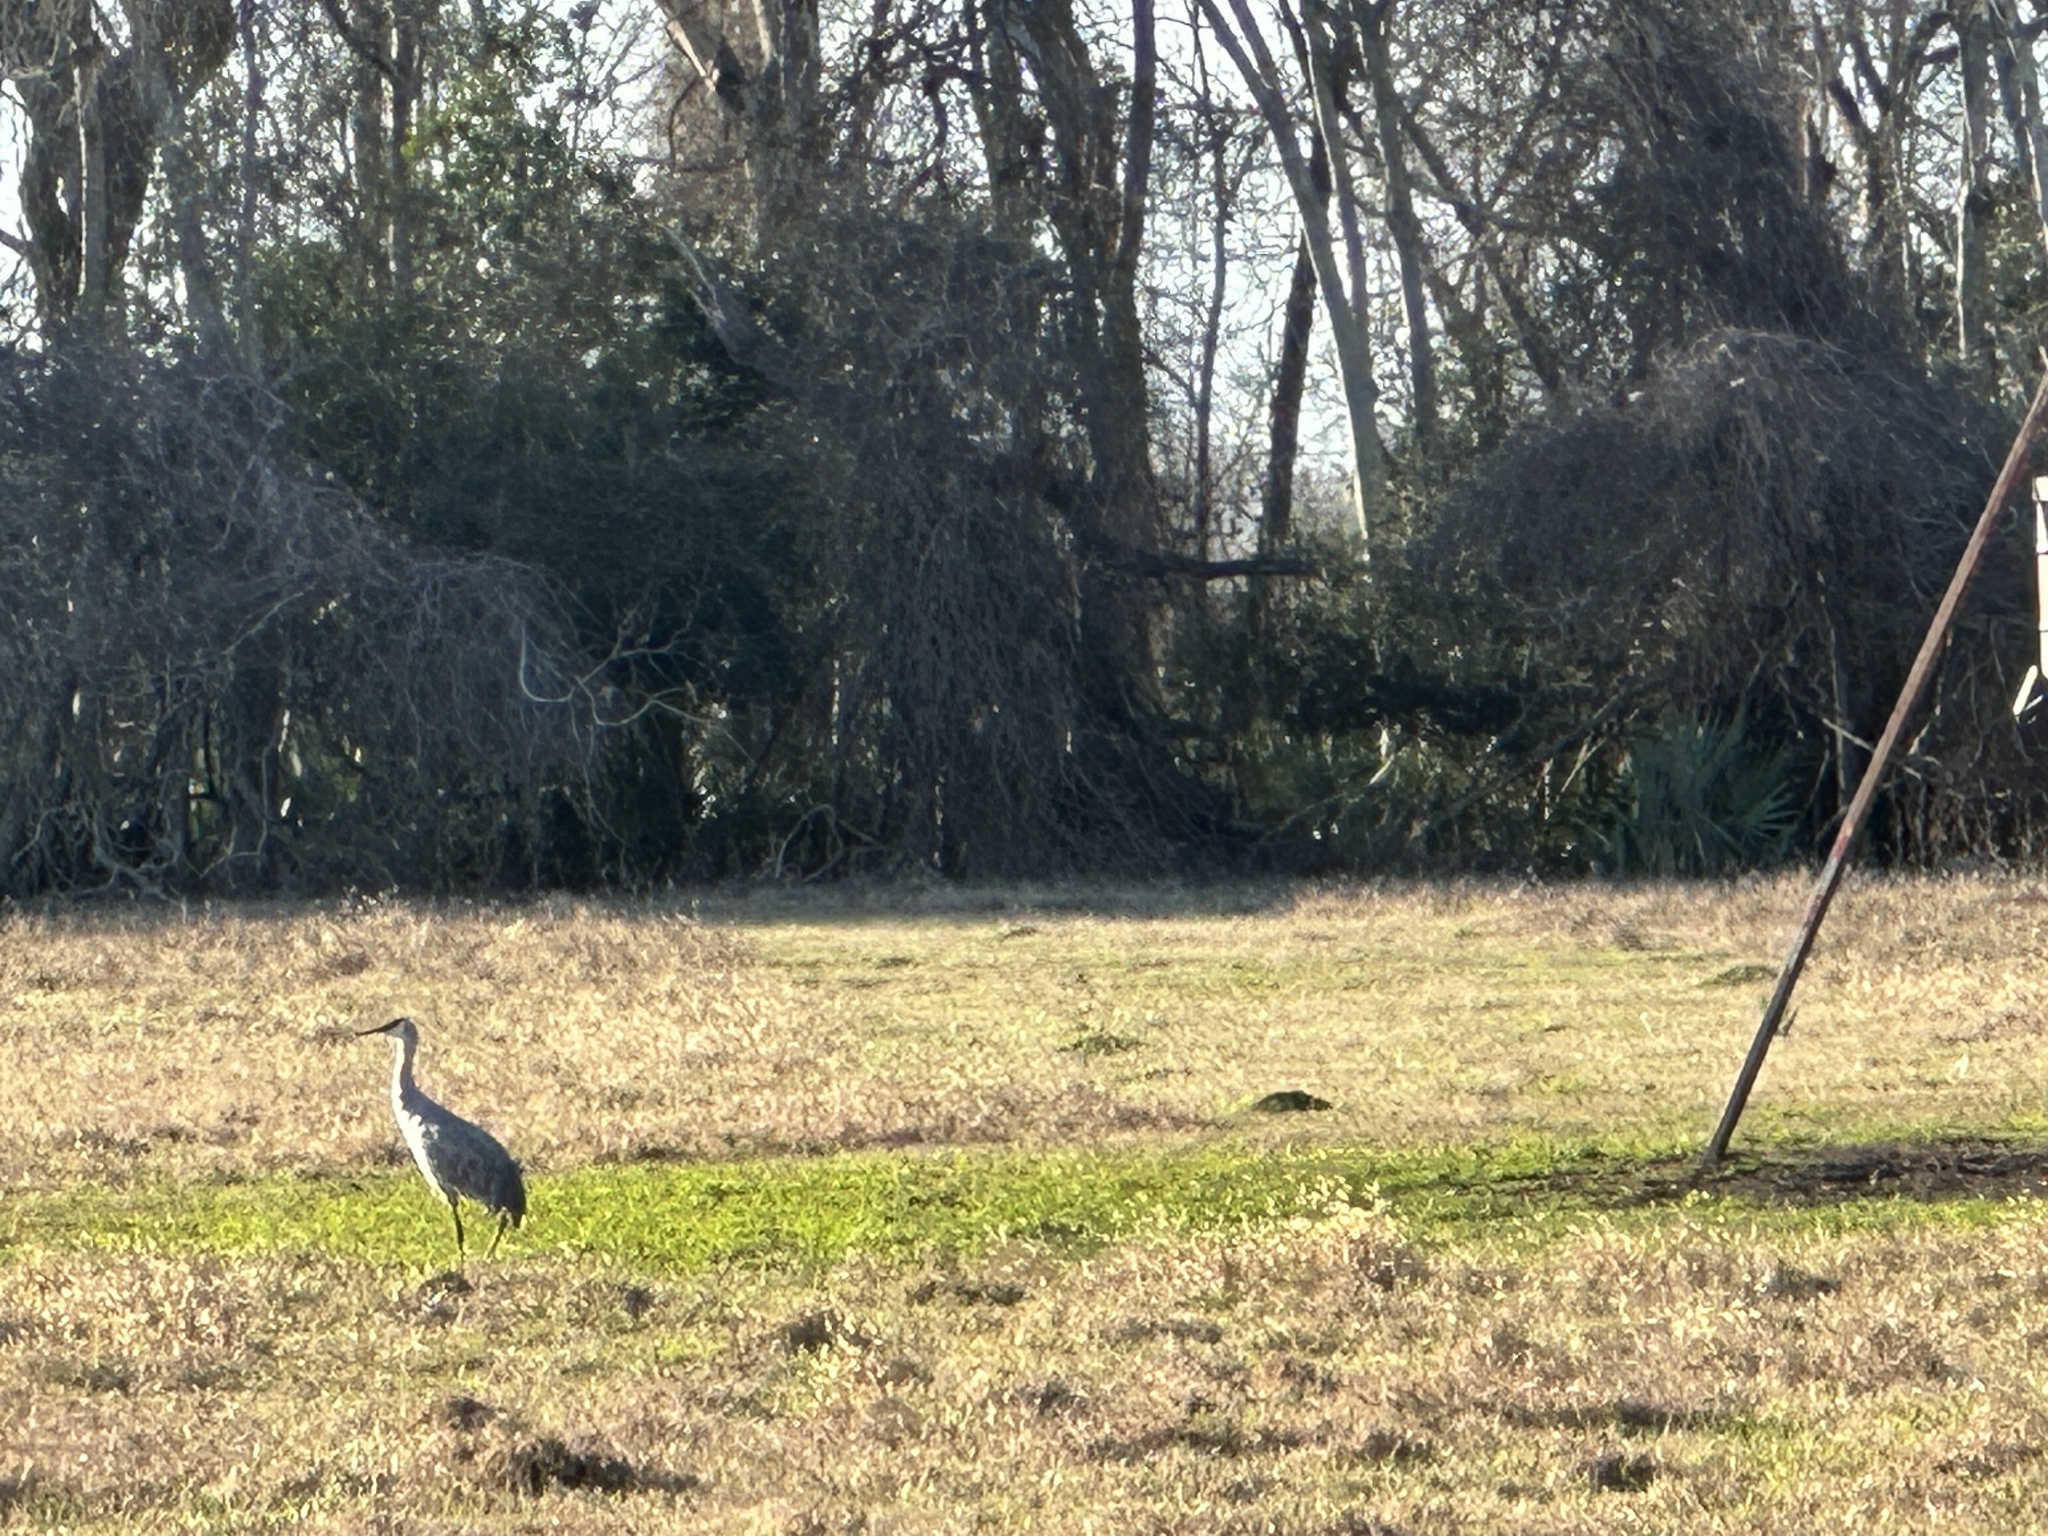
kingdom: Animalia
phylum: Chordata
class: Aves
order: Gruiformes
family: Gruidae
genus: Grus
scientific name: Grus canadensis
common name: Sandhill crane
